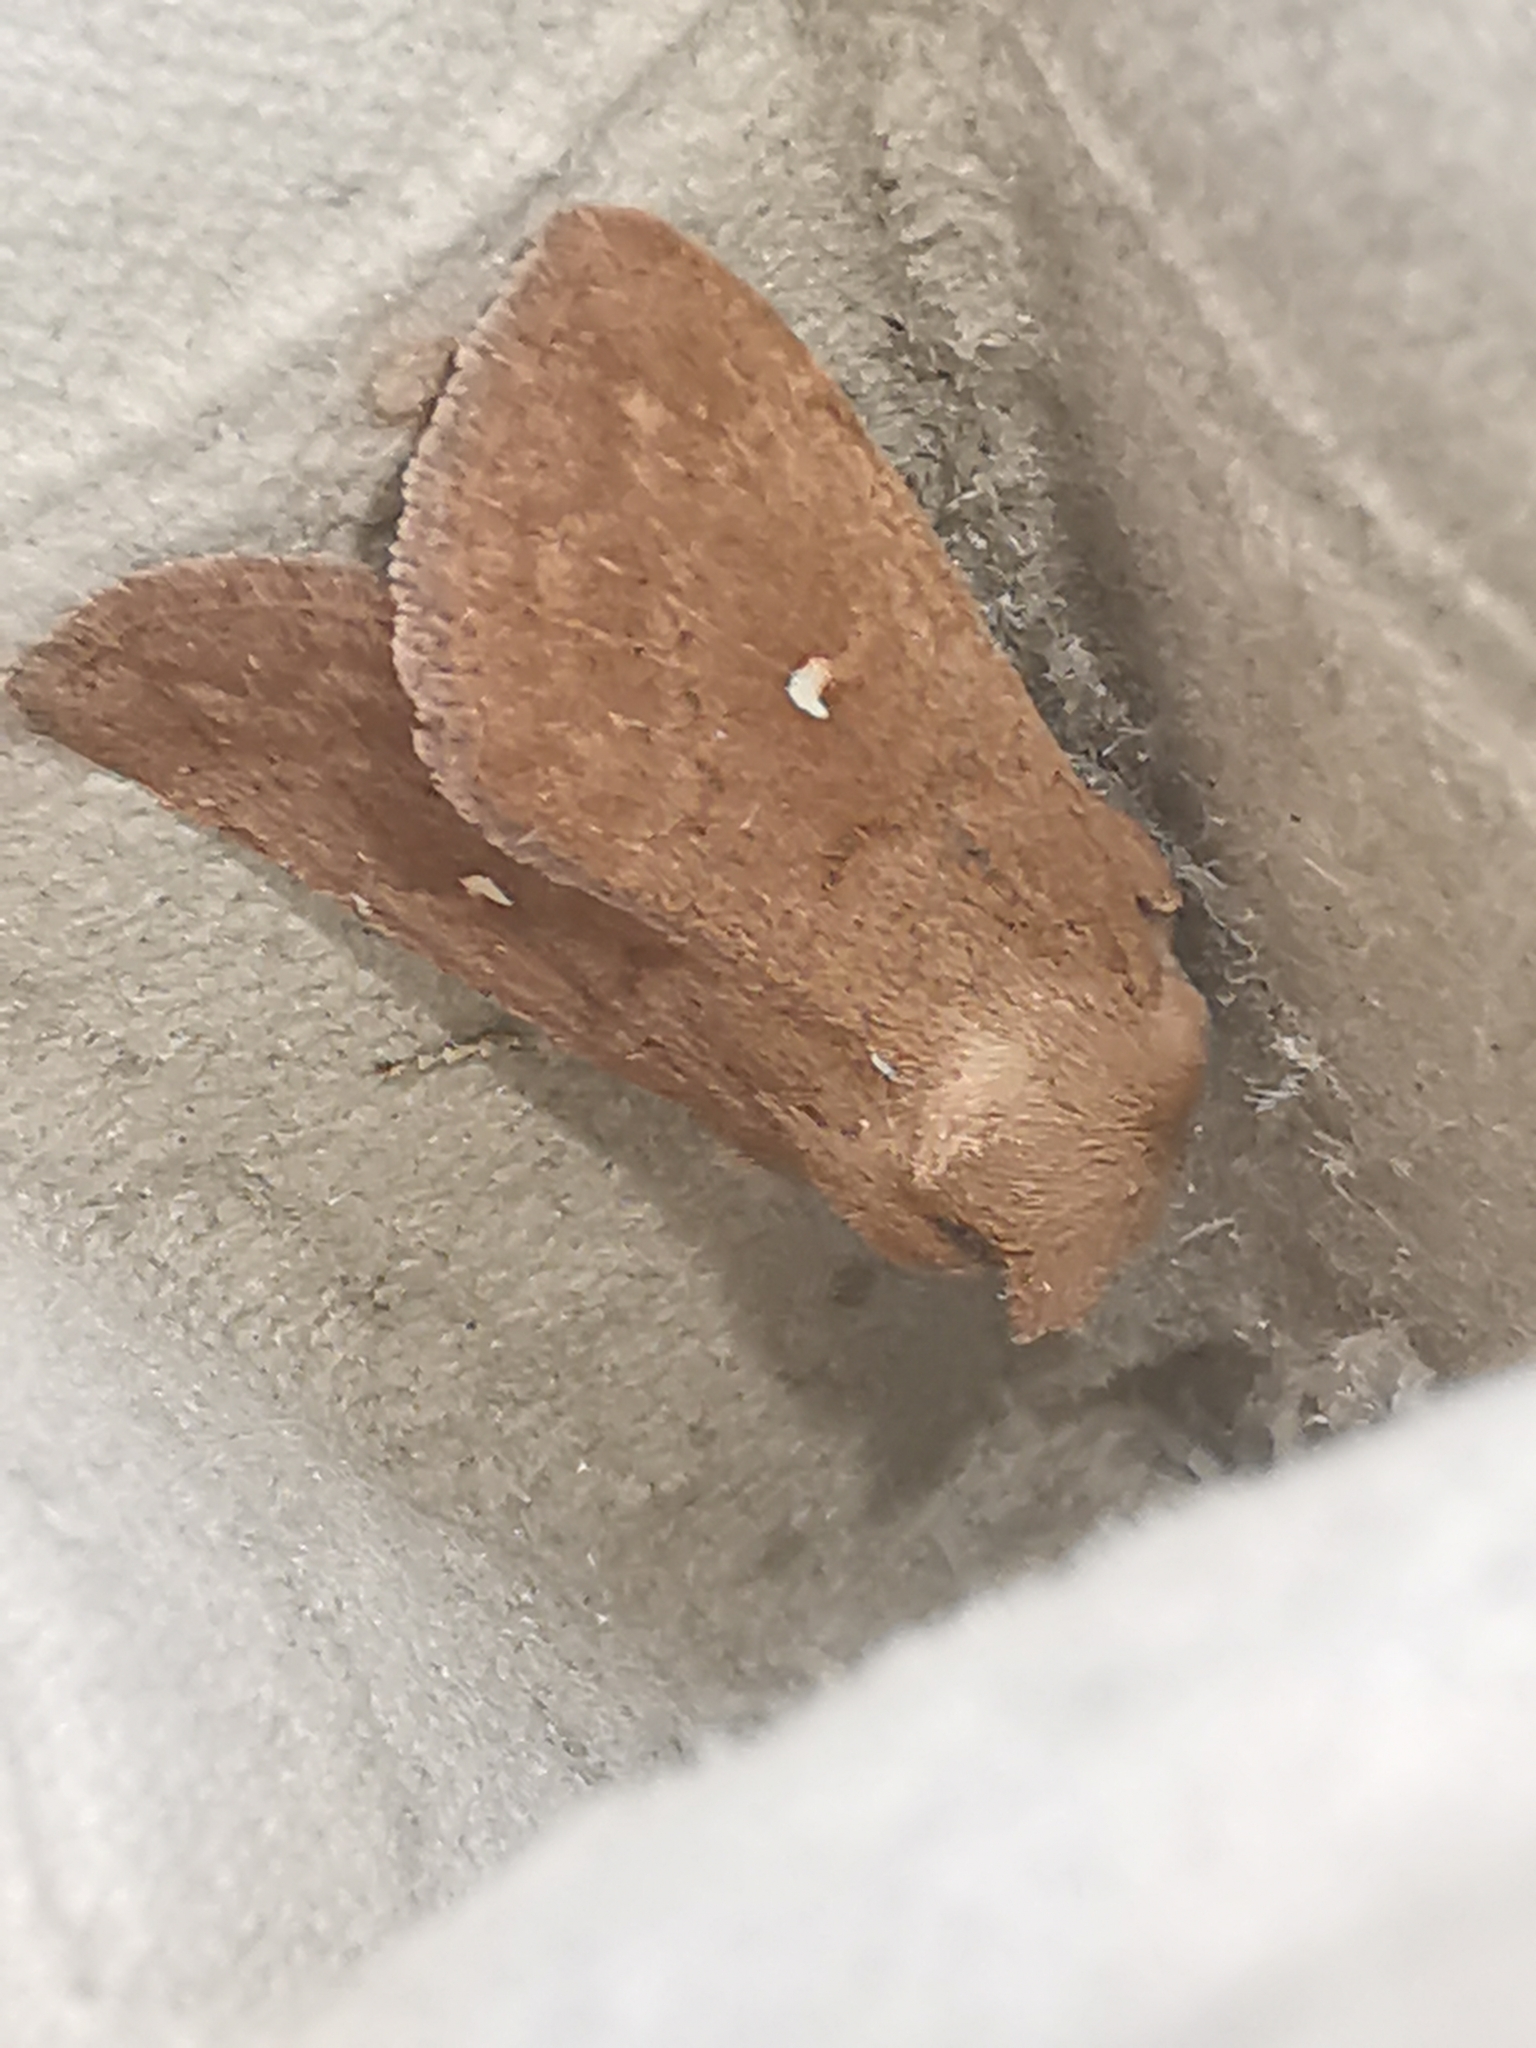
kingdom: Animalia
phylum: Arthropoda
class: Insecta
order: Lepidoptera
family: Noctuidae
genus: Mythimna
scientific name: Mythimna albipuncta
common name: White-point
